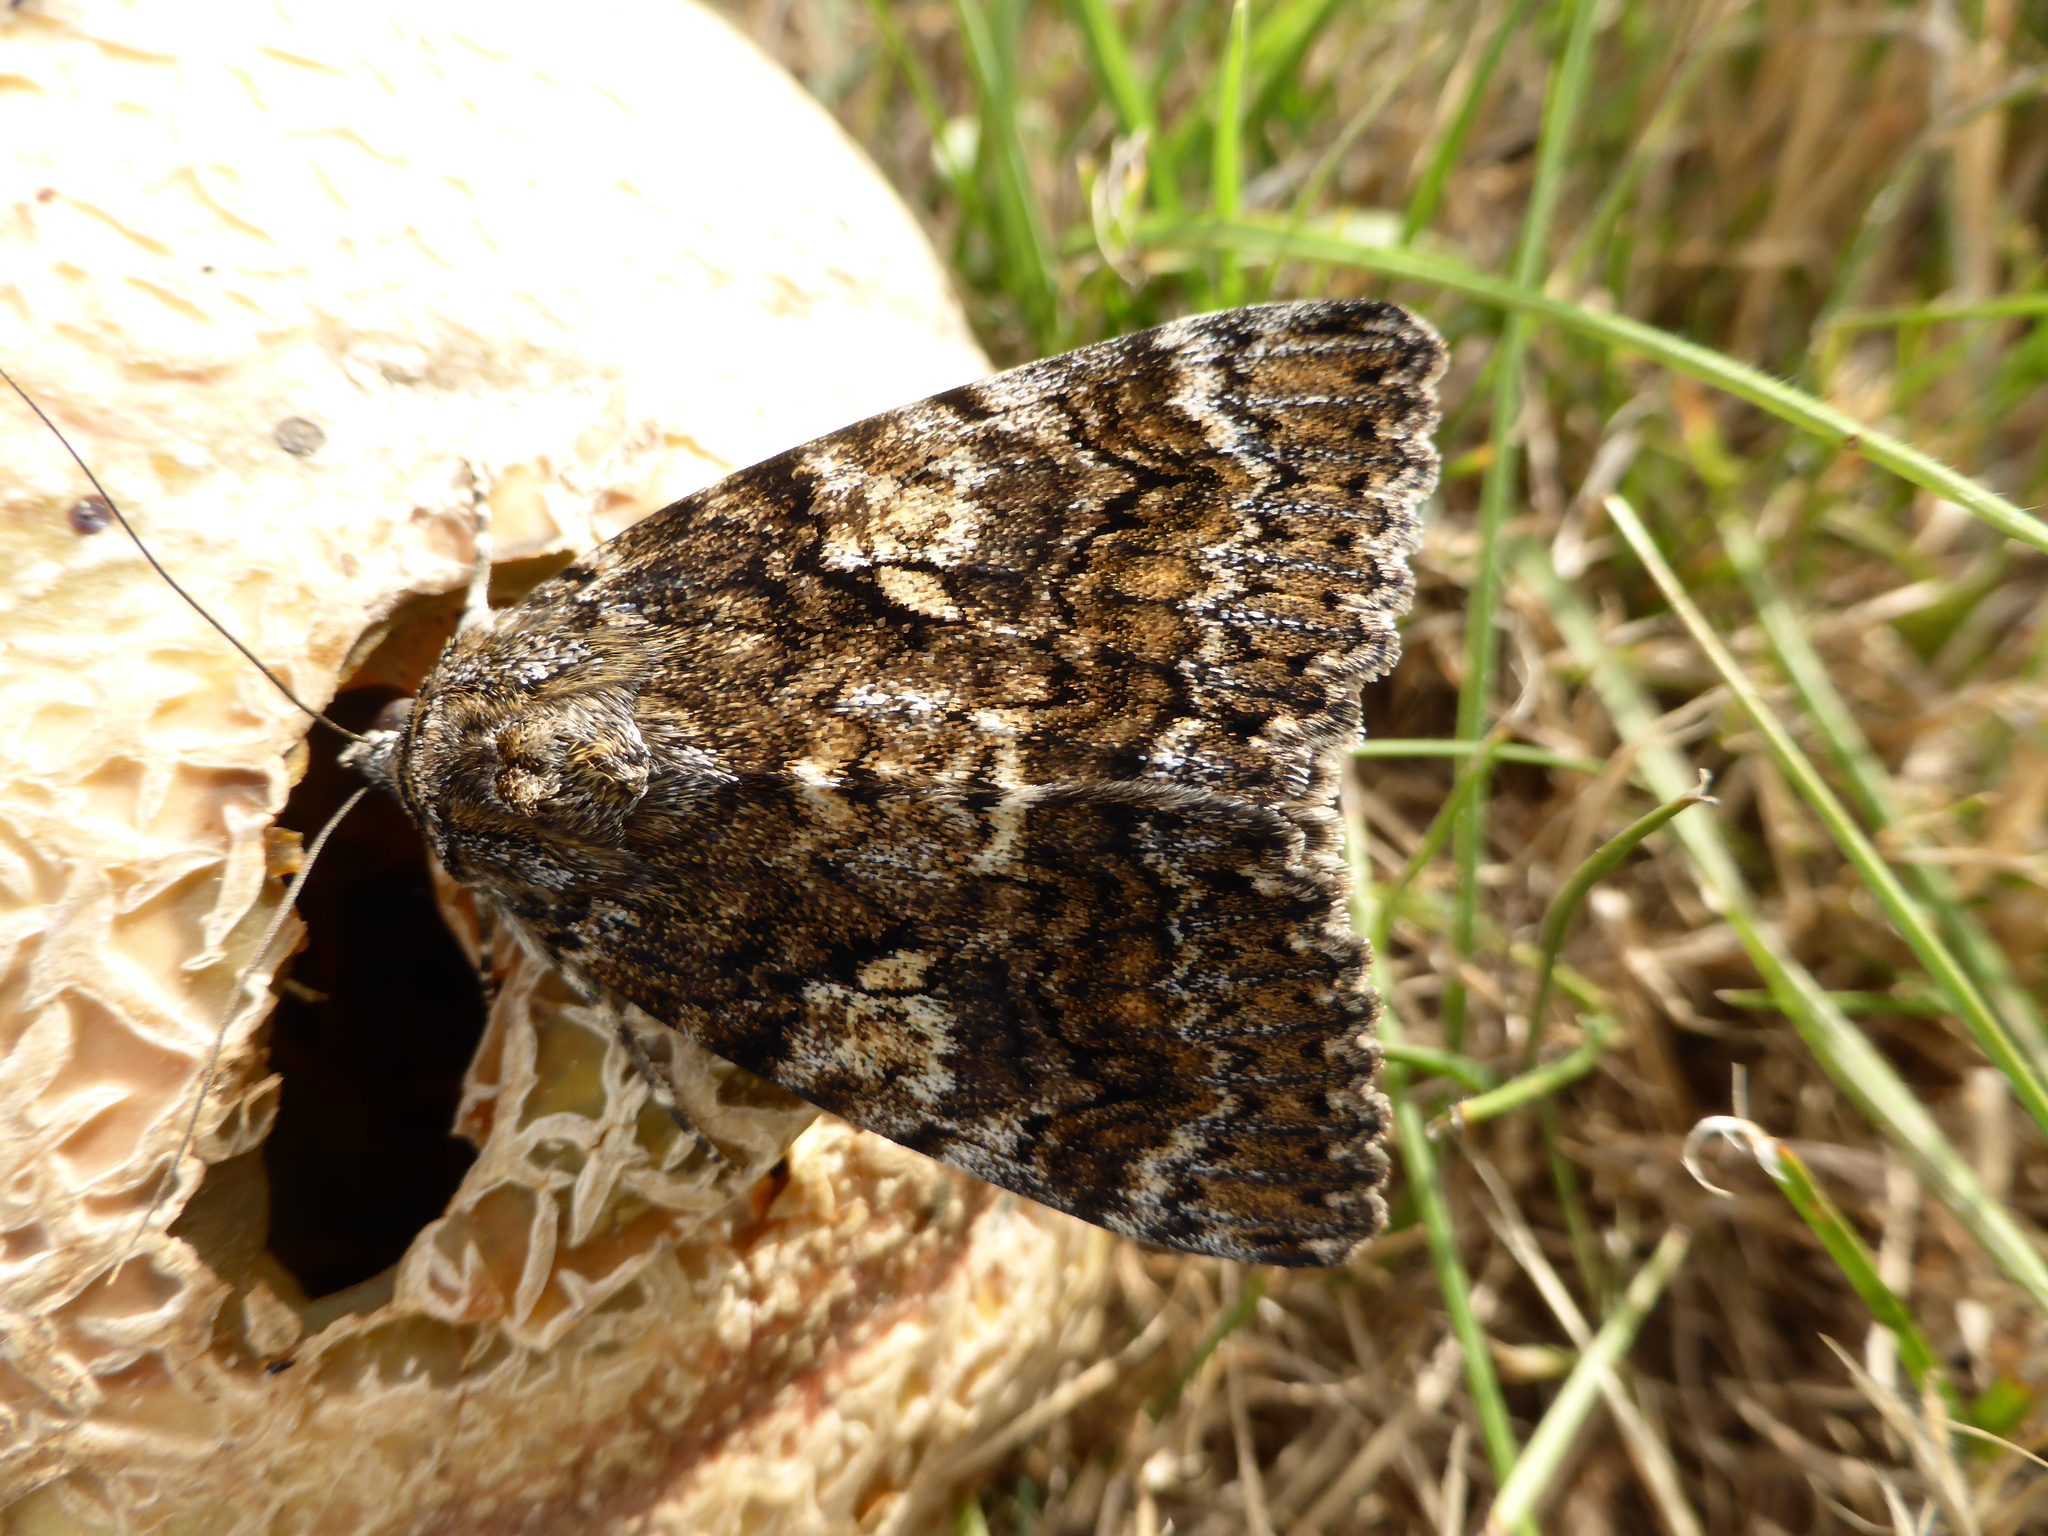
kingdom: Animalia
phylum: Arthropoda
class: Insecta
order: Lepidoptera
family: Erebidae
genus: Catocala
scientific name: Catocala sponsa
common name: Dark crimson underwing
